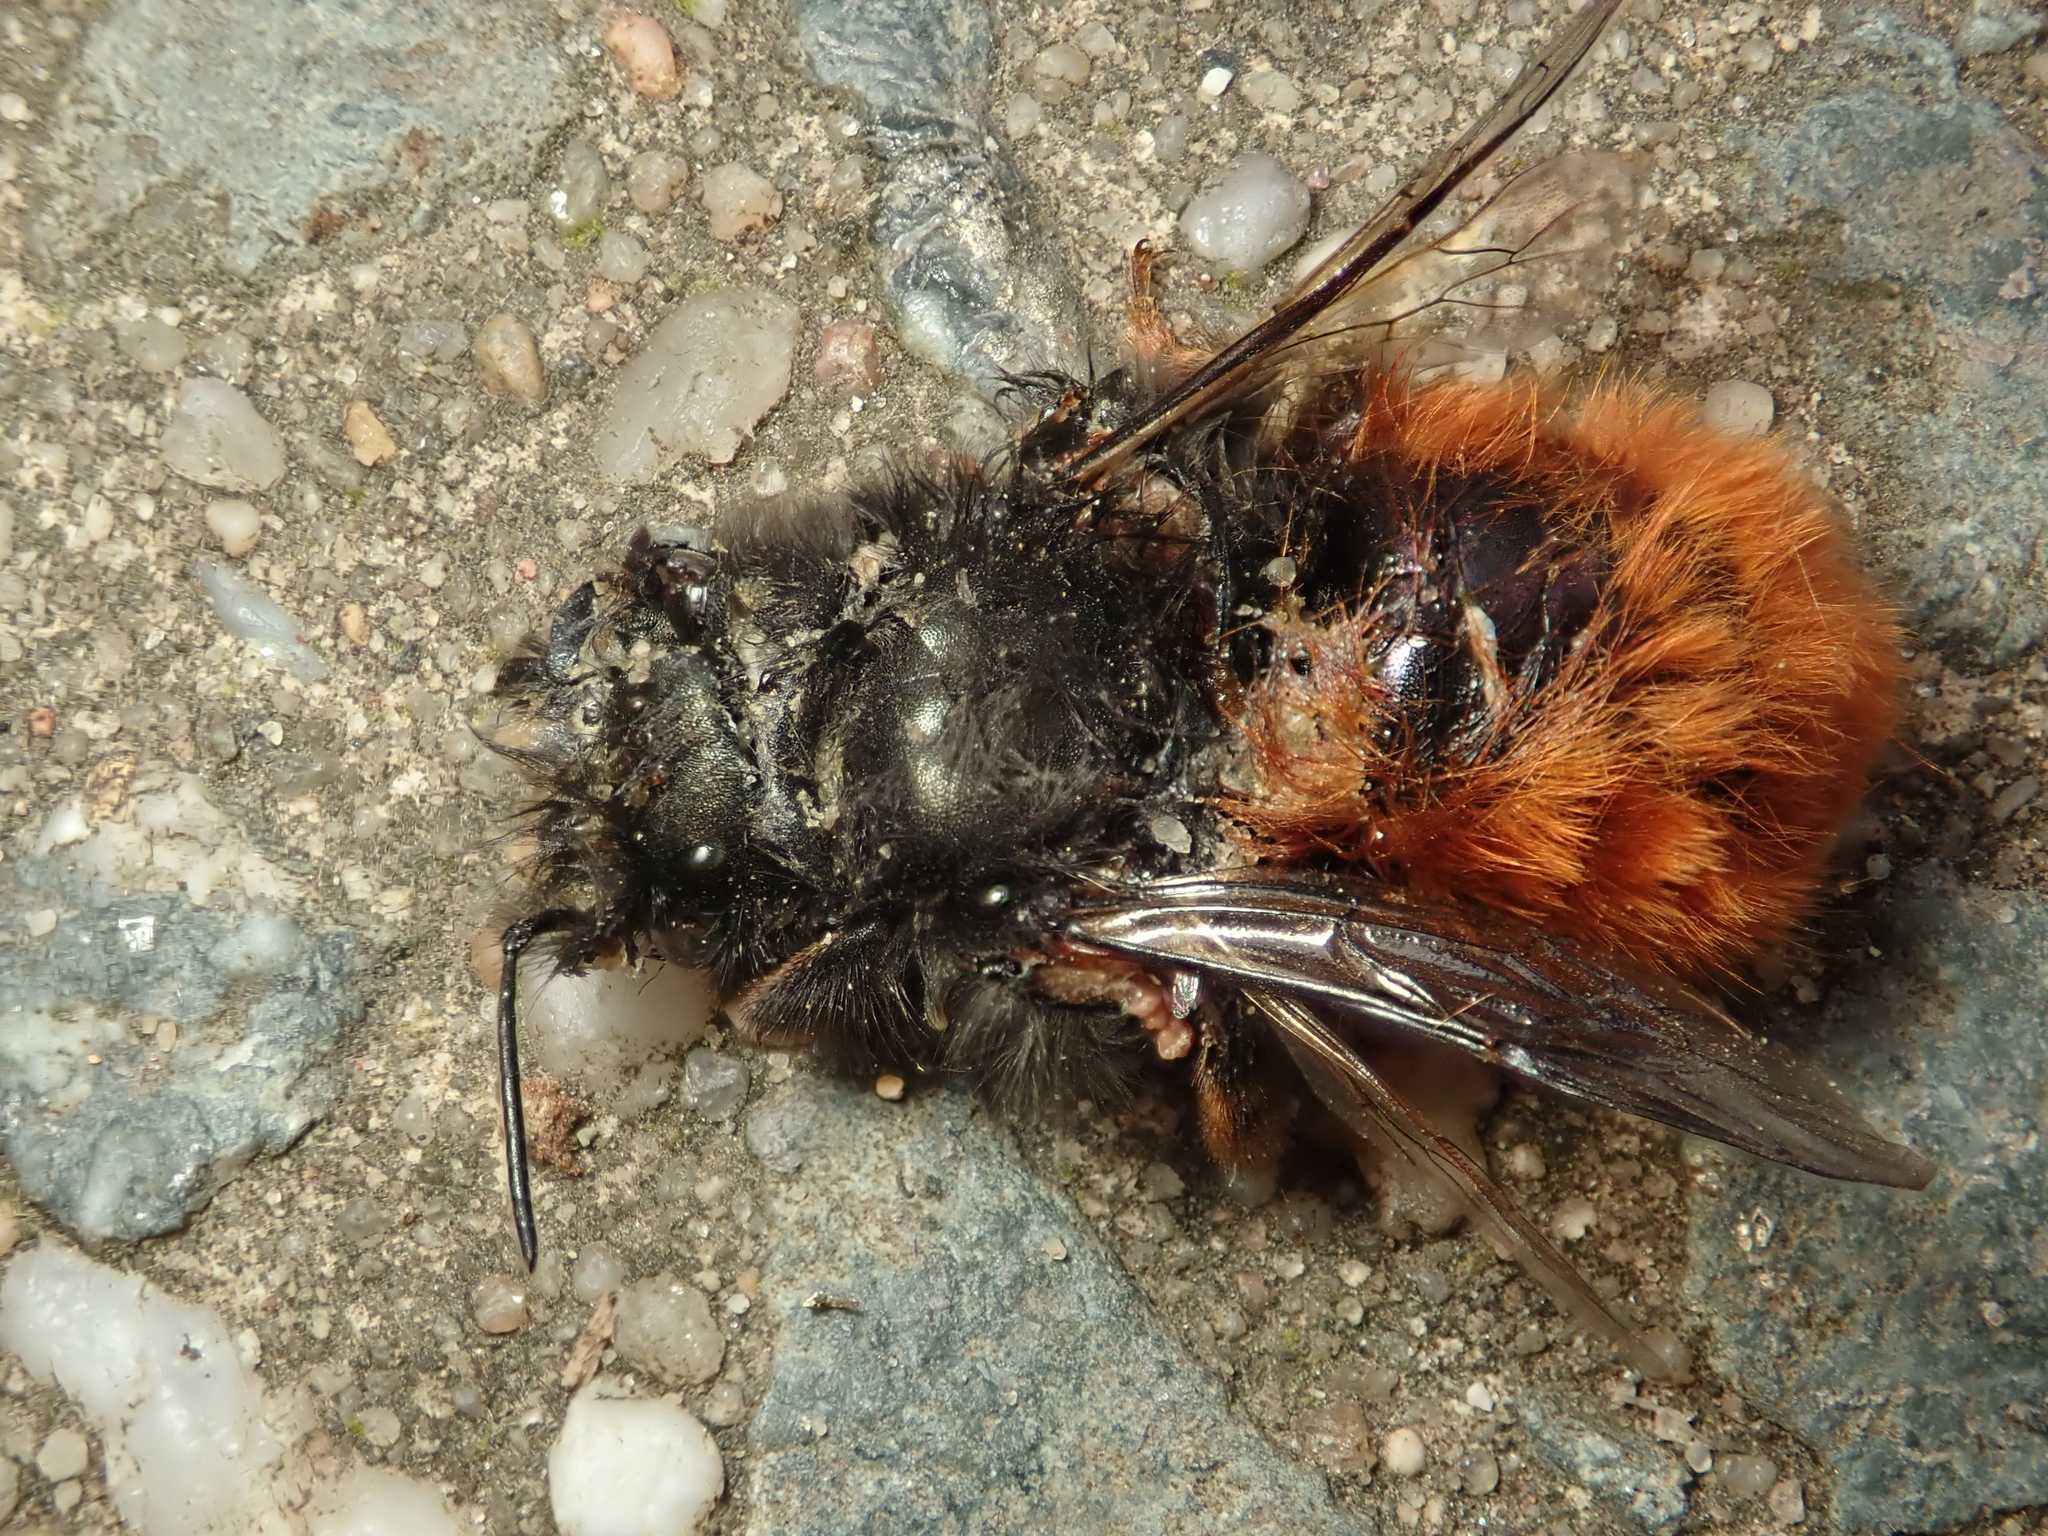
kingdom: Animalia
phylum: Arthropoda
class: Insecta
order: Hymenoptera
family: Megachilidae
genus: Osmia
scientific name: Osmia cornuta
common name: Mason bee
